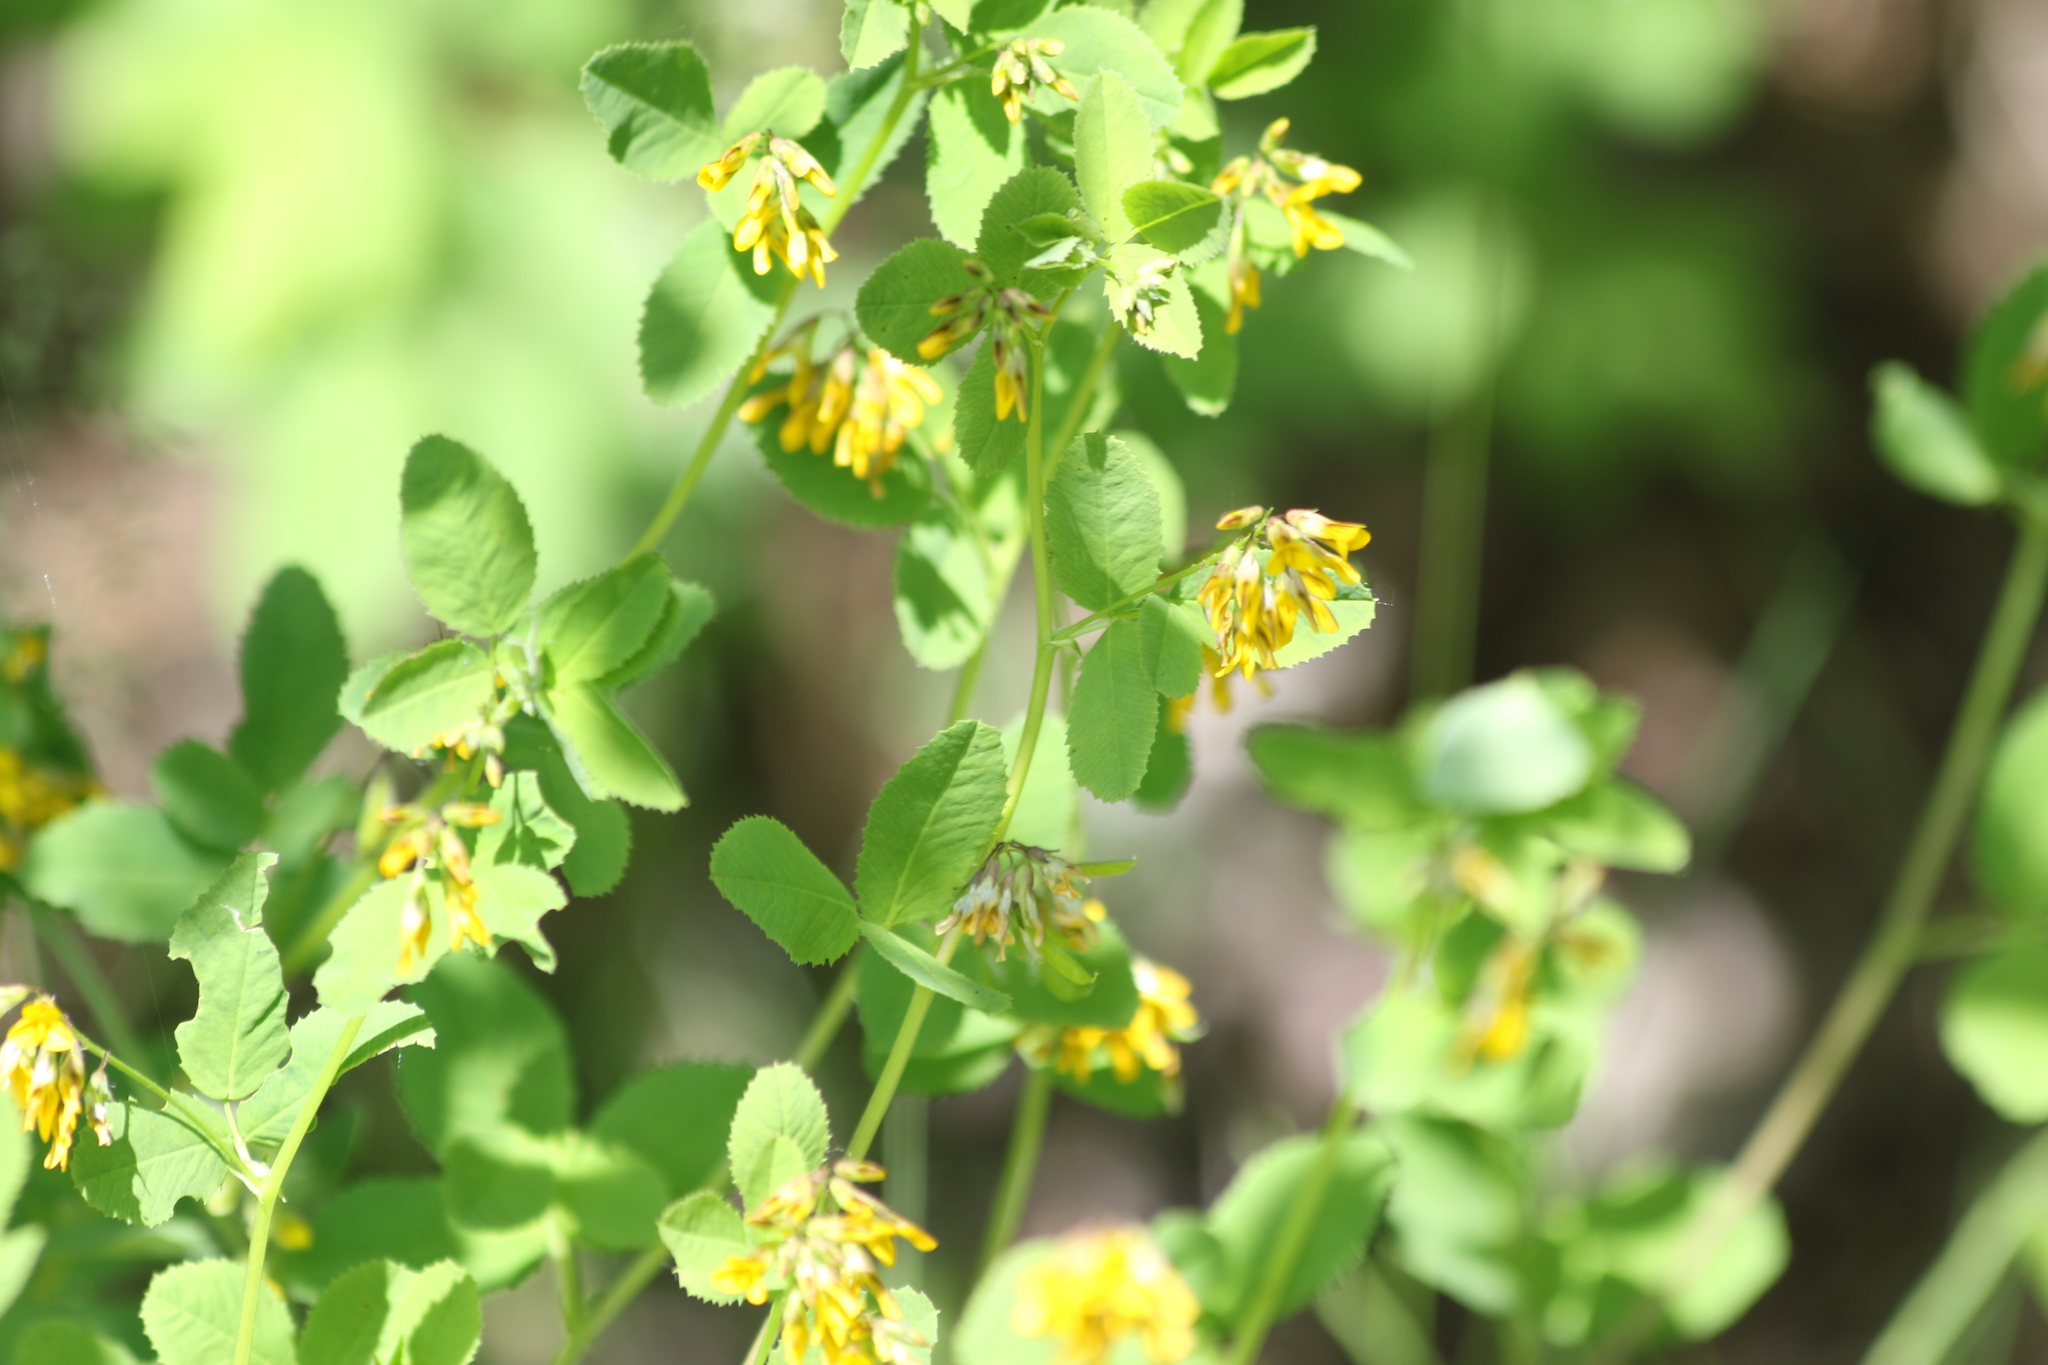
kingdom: Plantae
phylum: Tracheophyta
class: Magnoliopsida
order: Fabales
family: Fabaceae
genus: Medicago
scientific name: Medicago platycarpos
